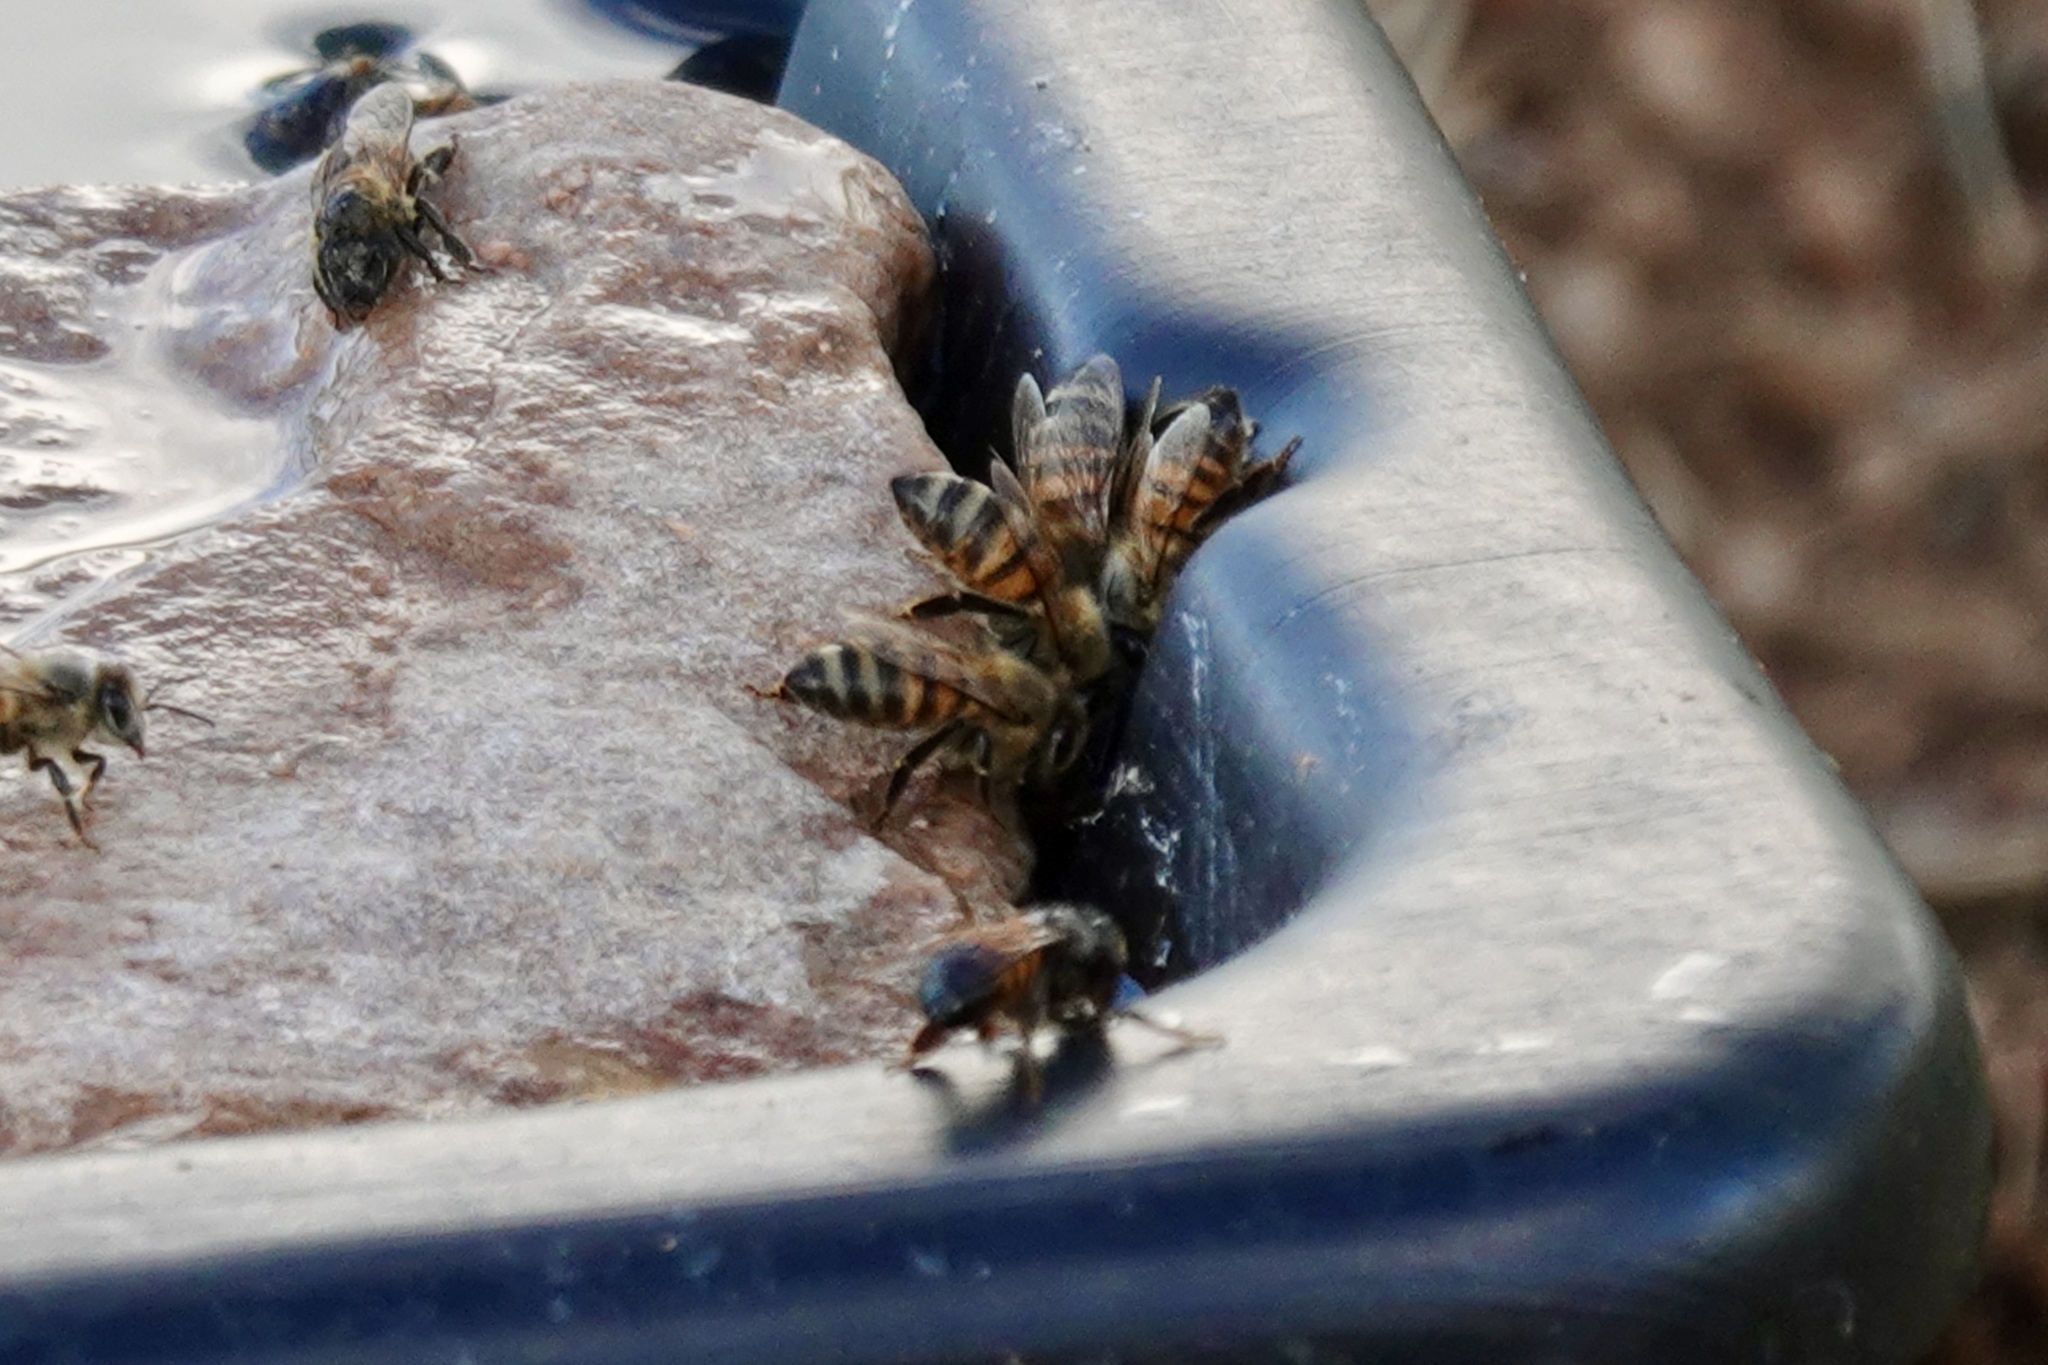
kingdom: Animalia
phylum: Arthropoda
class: Insecta
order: Hymenoptera
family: Apidae
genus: Apis
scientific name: Apis mellifera
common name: Honey bee
